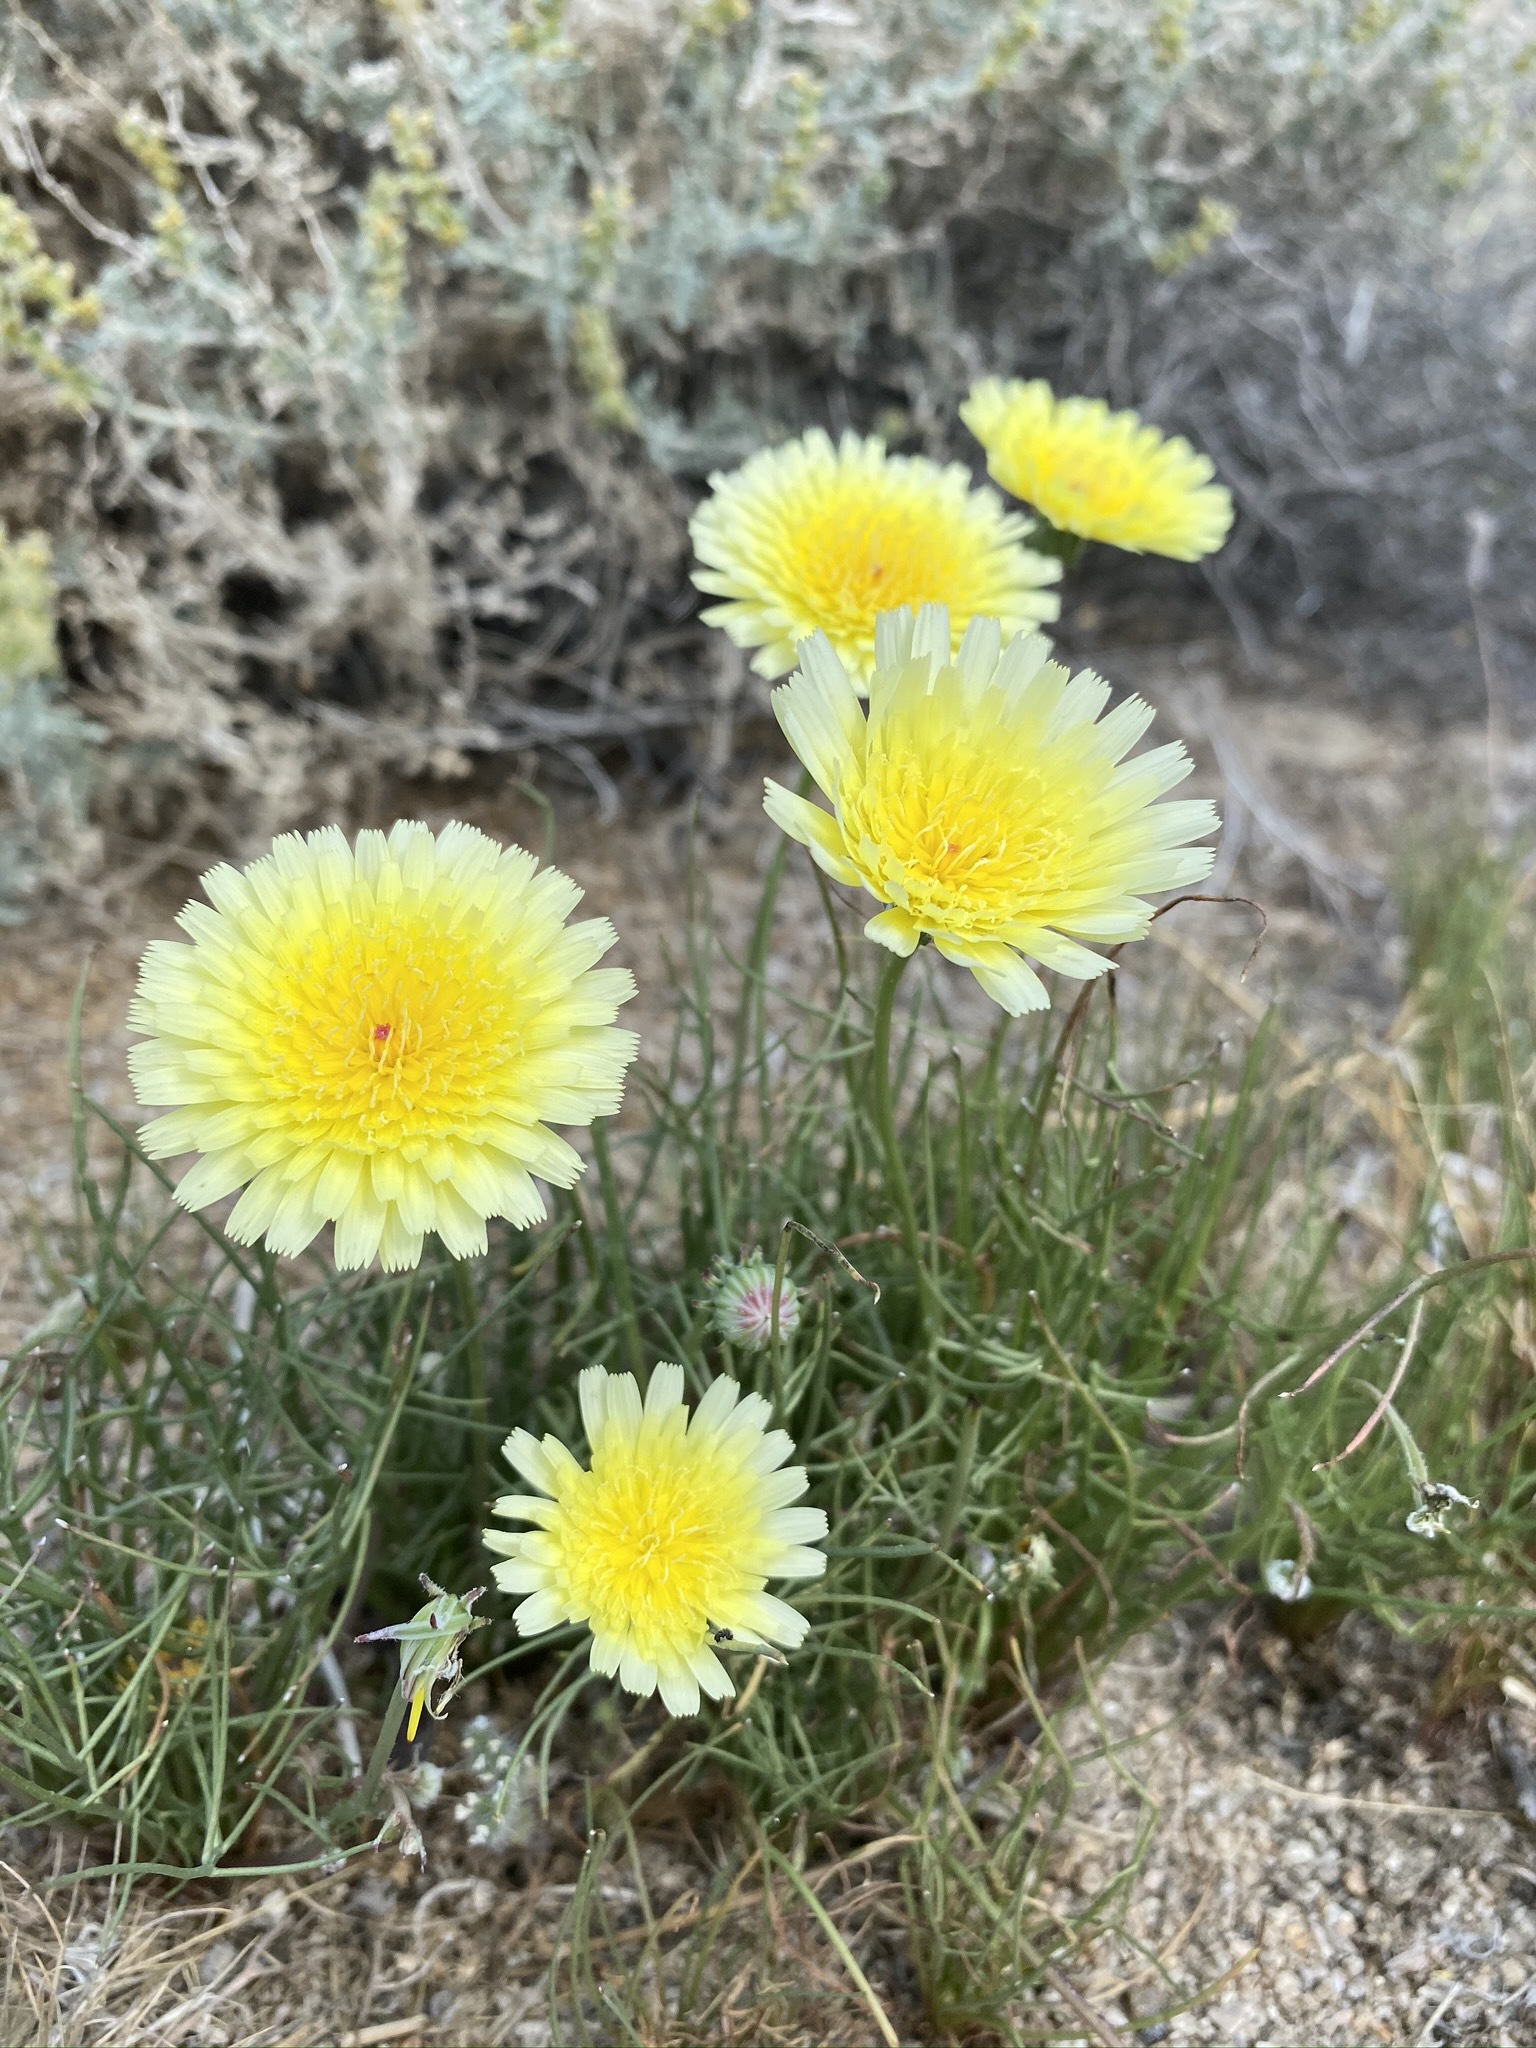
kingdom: Plantae
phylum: Tracheophyta
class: Magnoliopsida
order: Asterales
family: Asteraceae
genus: Malacothrix
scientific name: Malacothrix glabrata
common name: Smooth desert-dandelion
